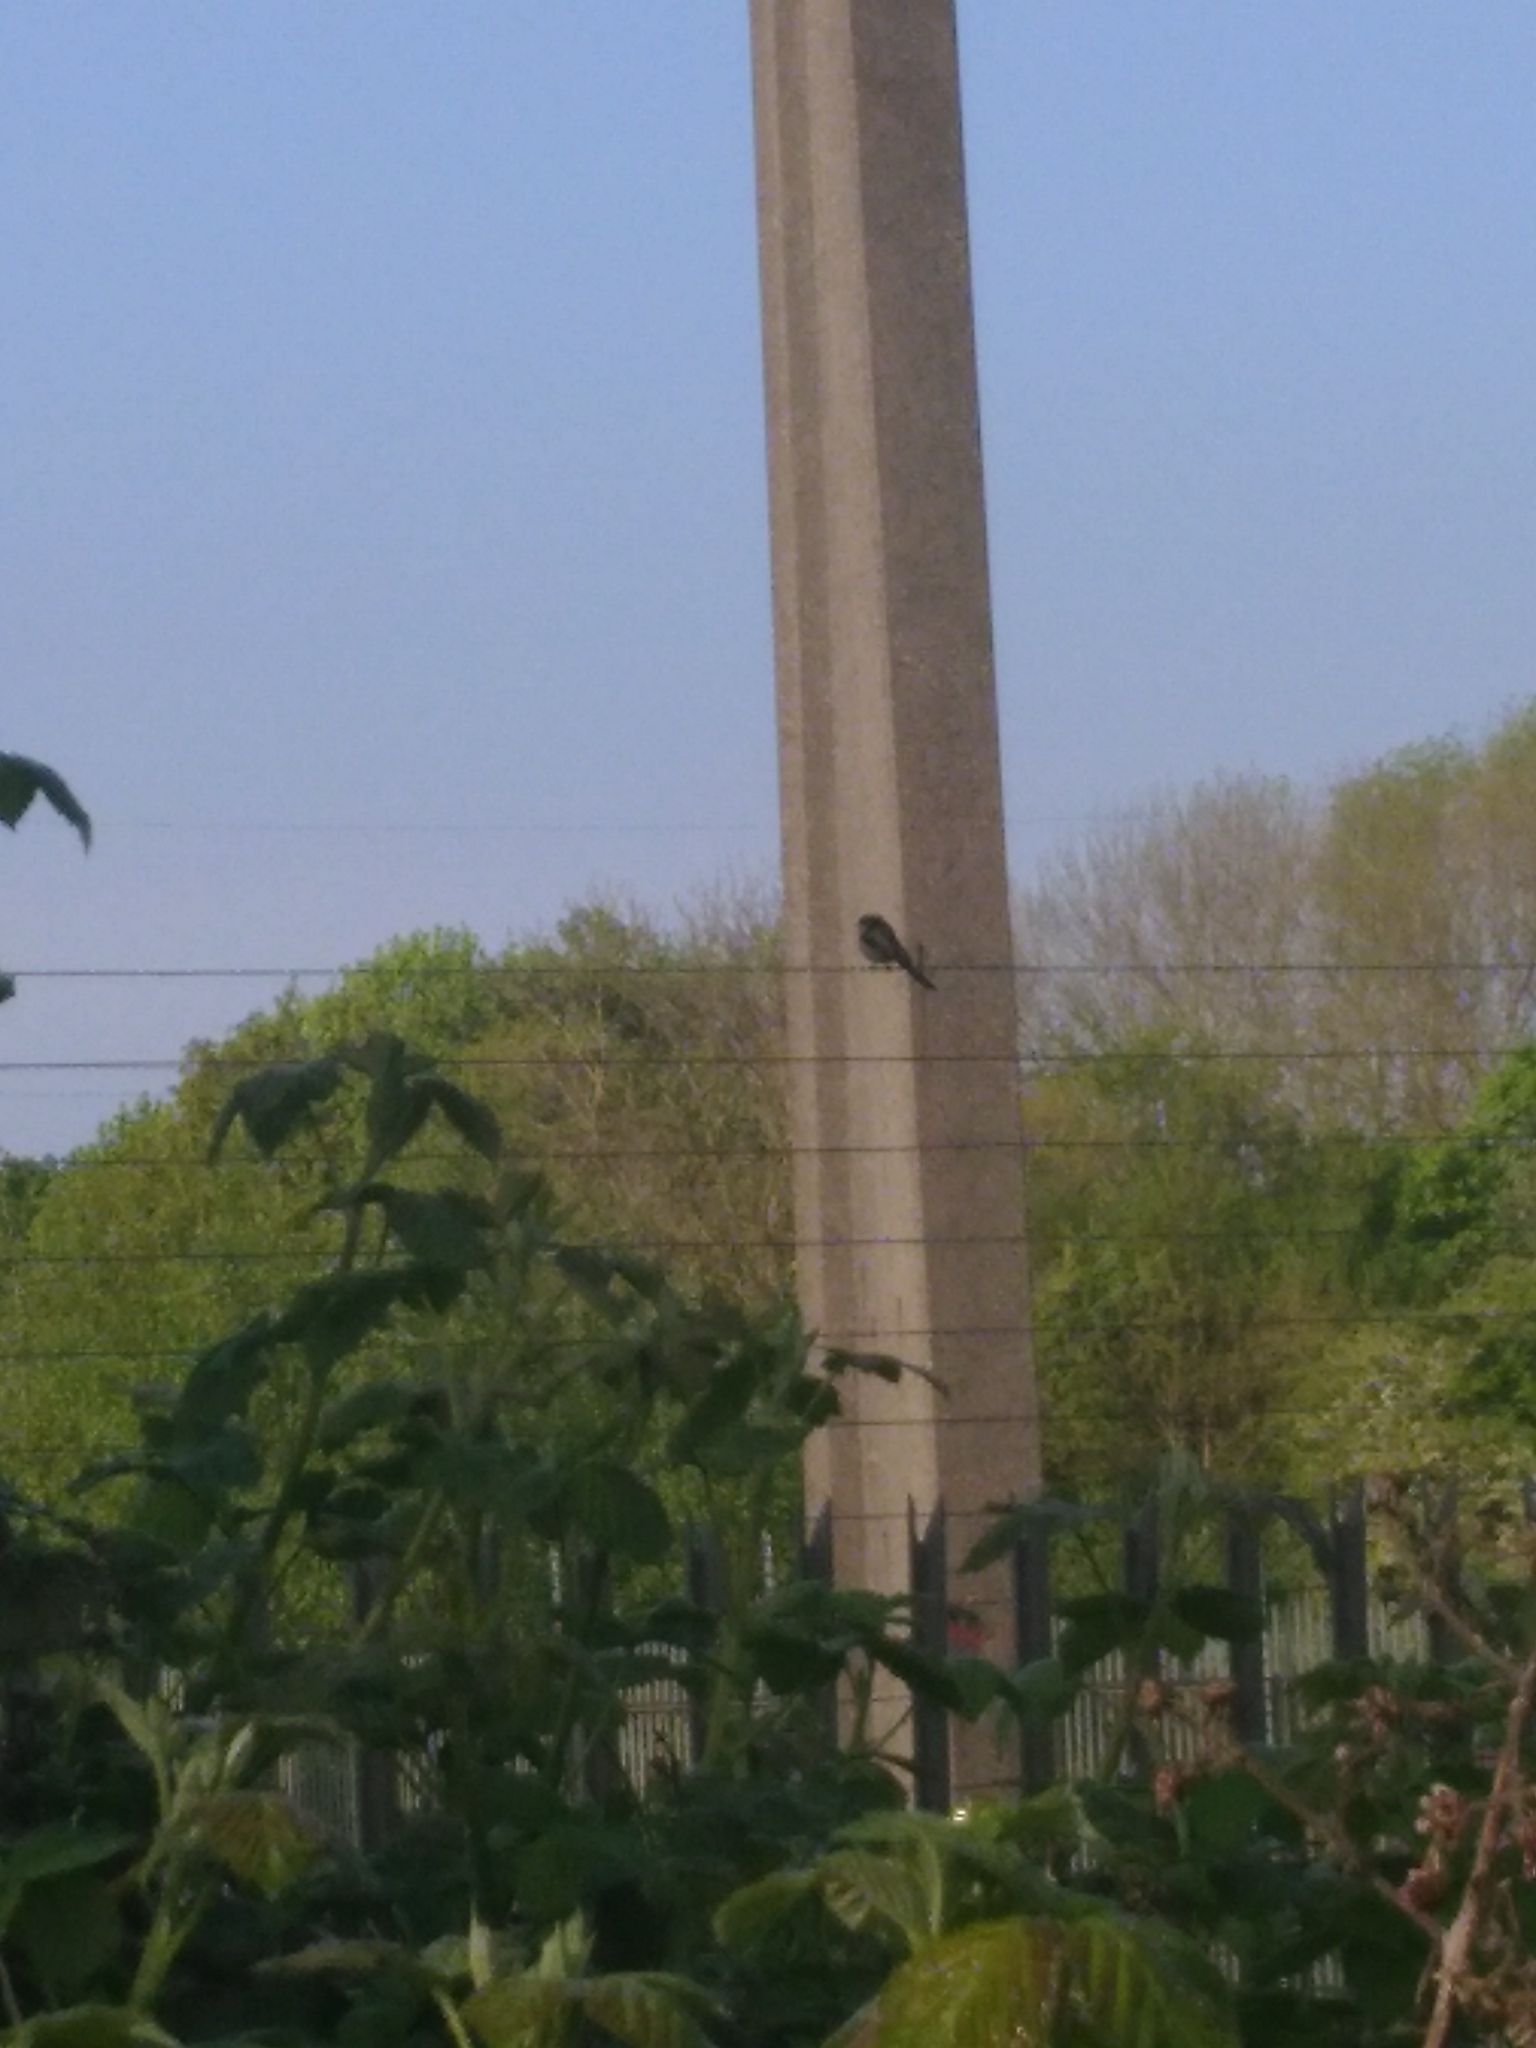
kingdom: Animalia
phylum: Chordata
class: Aves
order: Passeriformes
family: Aegithalidae
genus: Aegithalos
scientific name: Aegithalos caudatus
